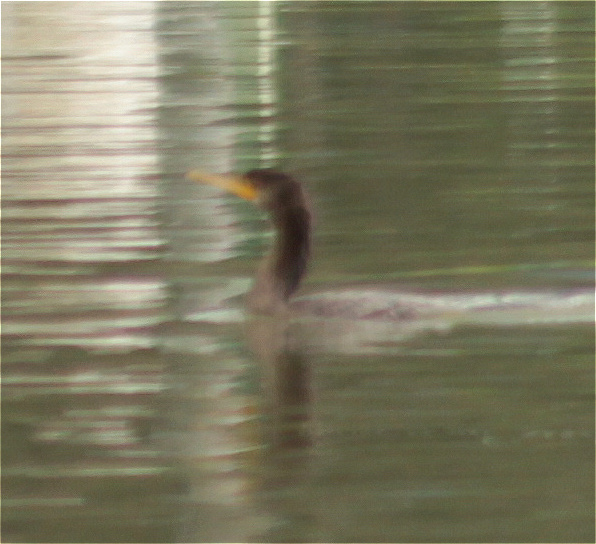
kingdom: Animalia
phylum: Chordata
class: Aves
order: Suliformes
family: Phalacrocoracidae
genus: Phalacrocorax
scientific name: Phalacrocorax brasilianus
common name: Neotropic cormorant
